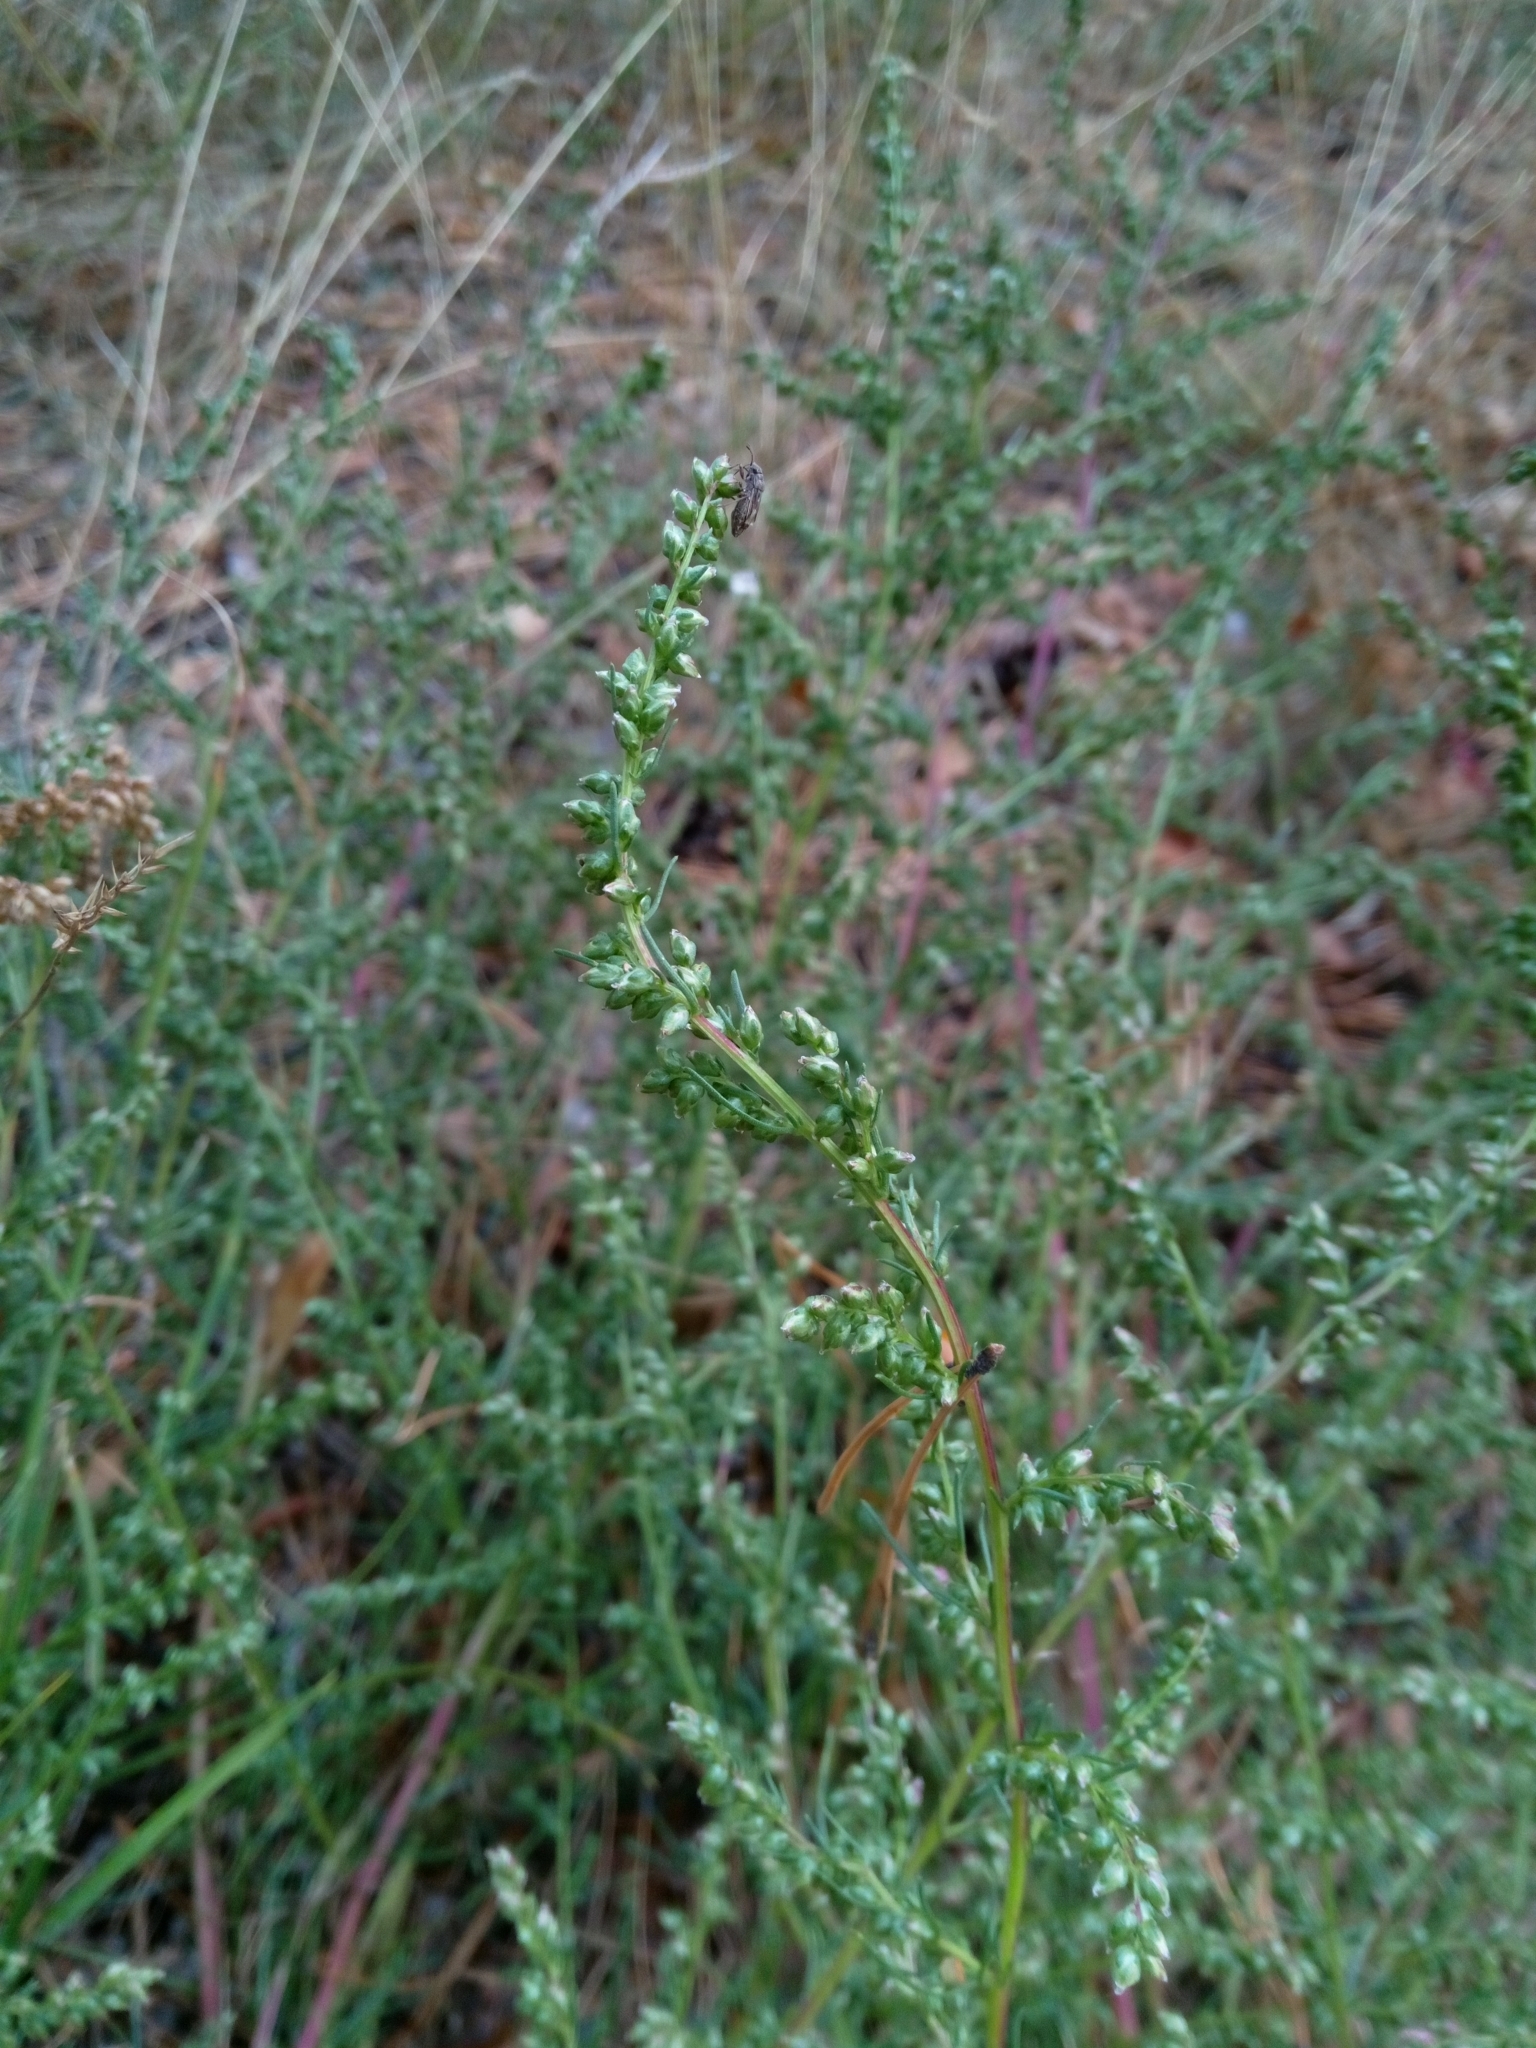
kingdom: Plantae
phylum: Tracheophyta
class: Magnoliopsida
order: Asterales
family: Asteraceae
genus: Artemisia
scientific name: Artemisia campestris
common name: Field wormwood
